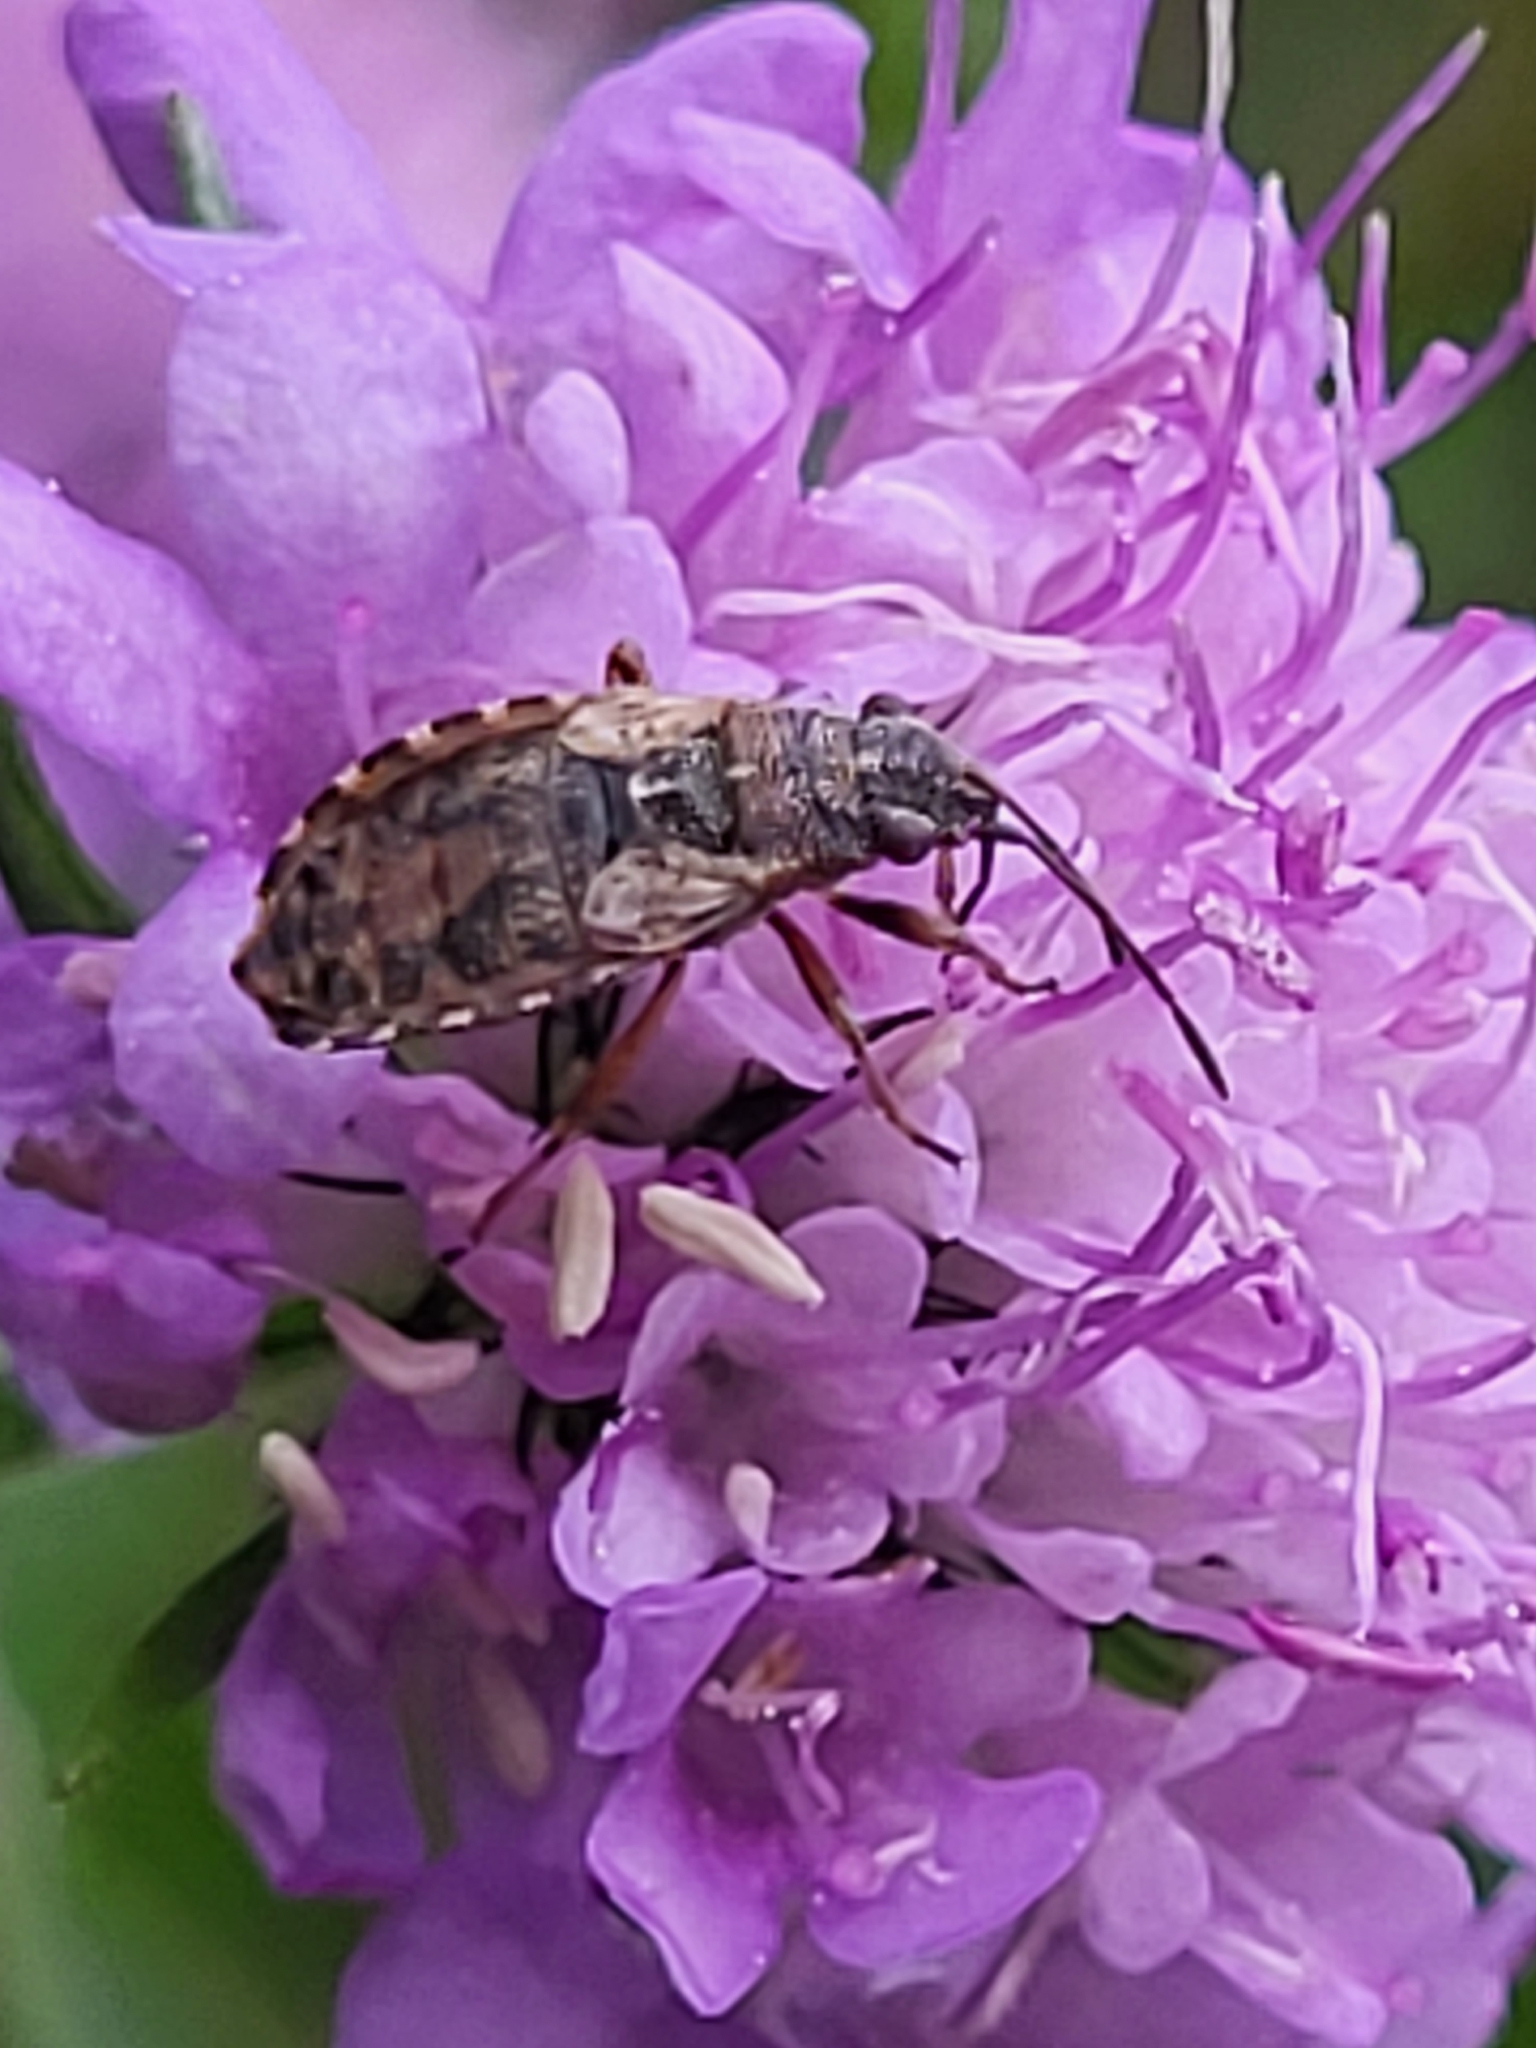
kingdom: Animalia
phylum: Arthropoda
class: Insecta
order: Hemiptera
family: Lygaeidae
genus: Nithecus
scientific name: Nithecus jacobaeae
